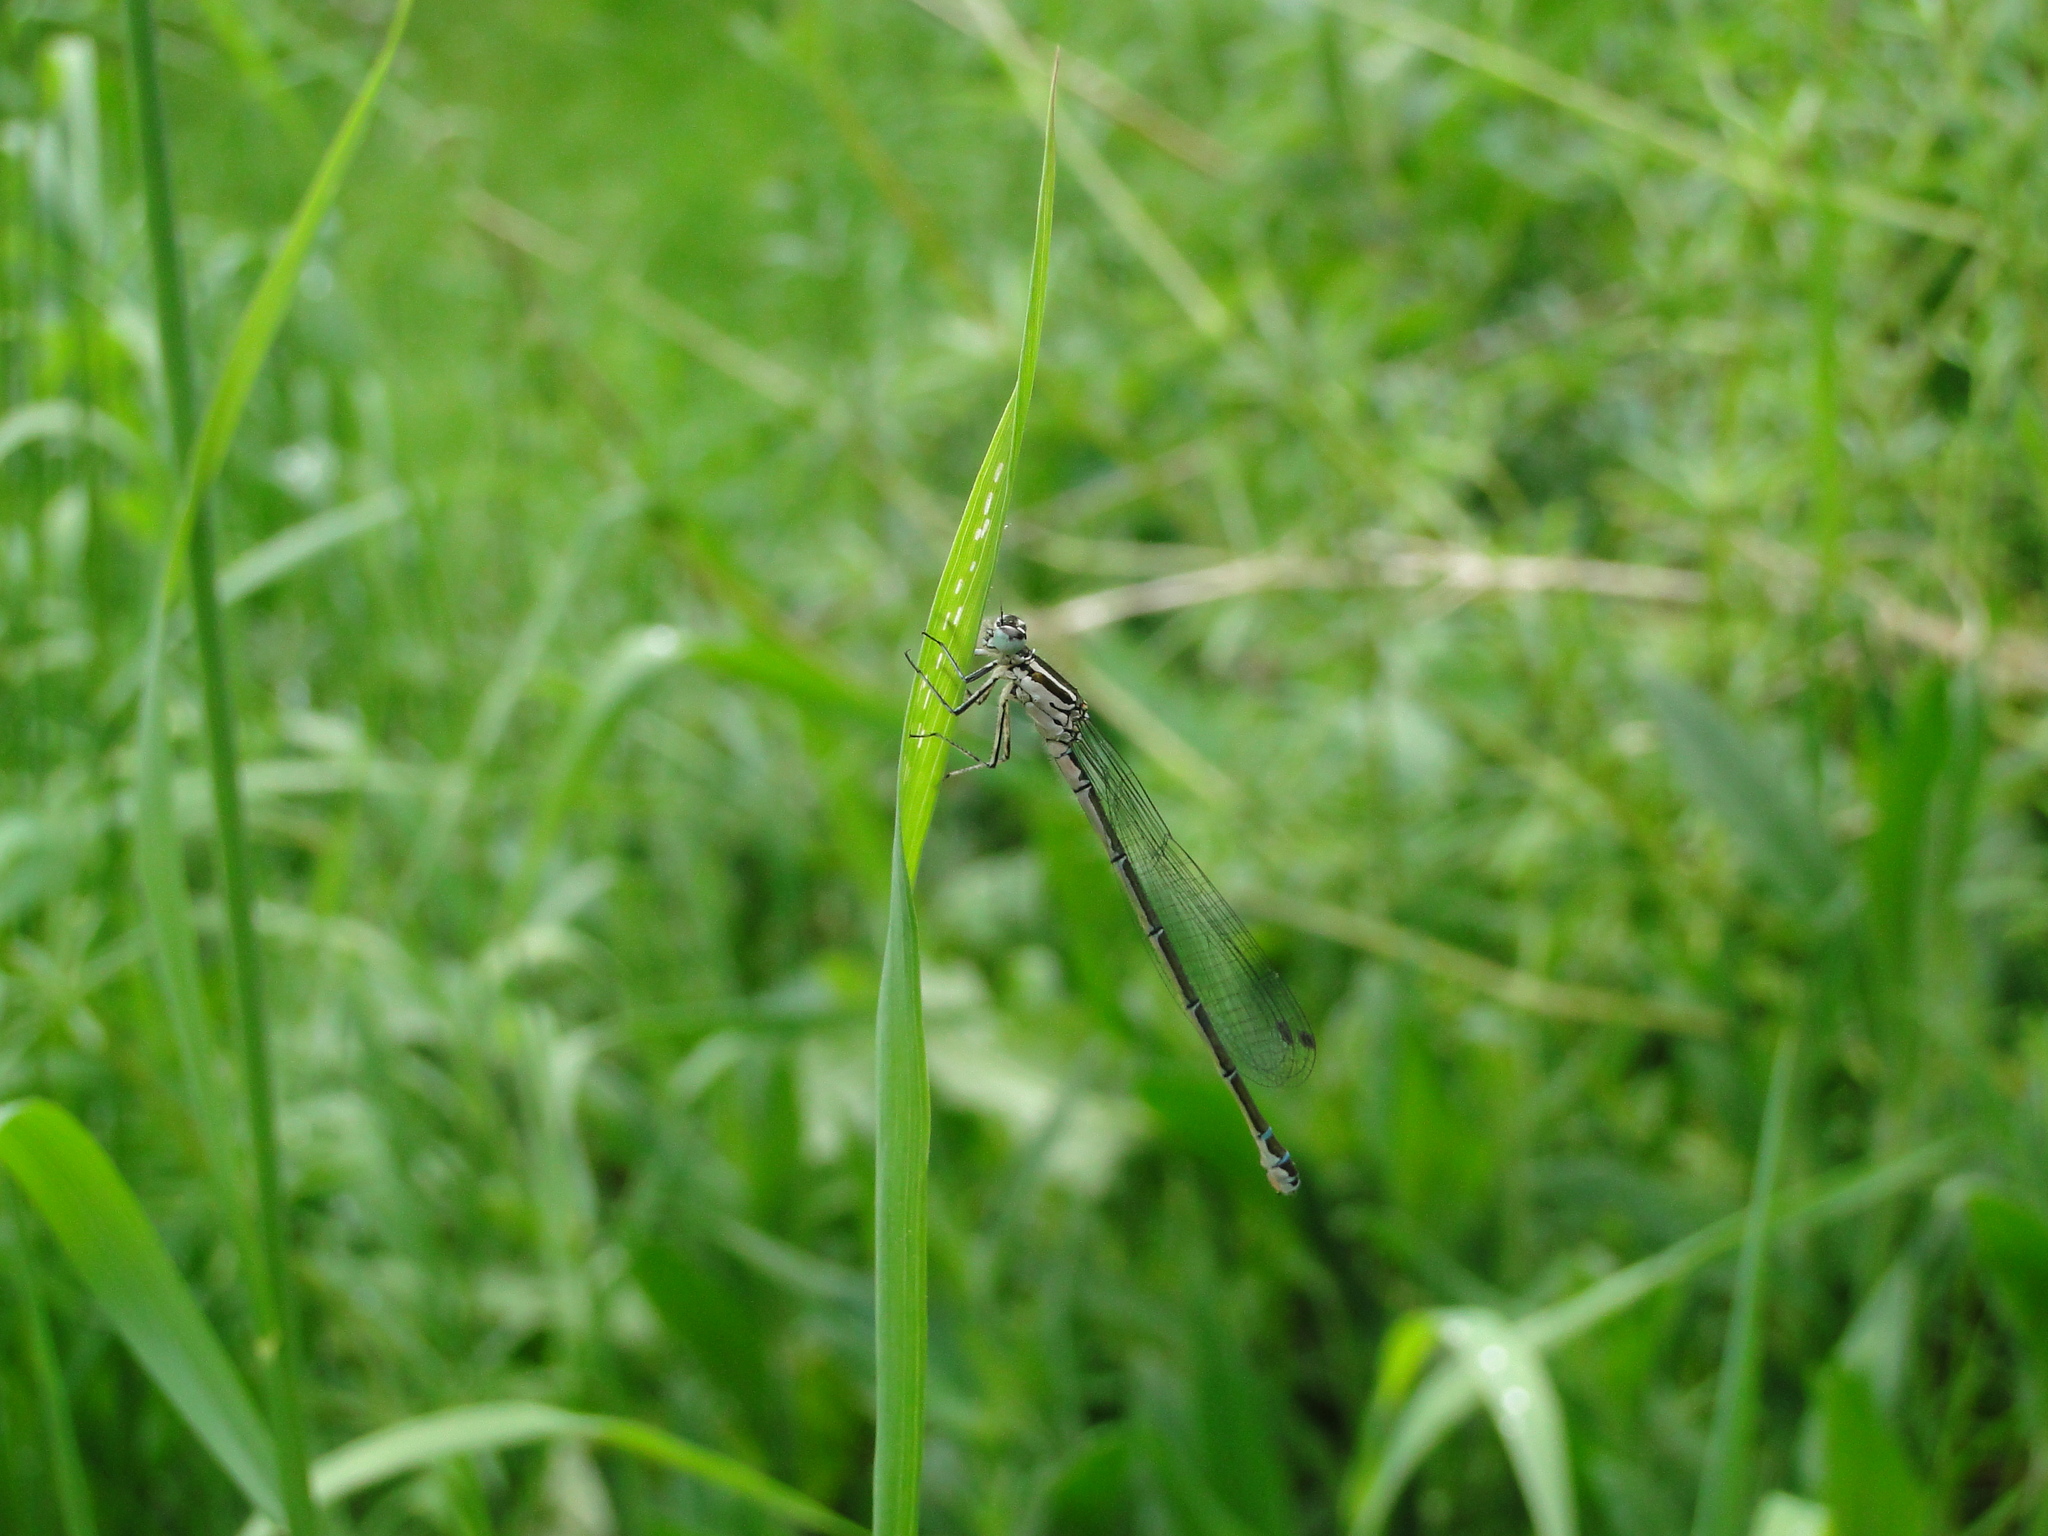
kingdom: Animalia
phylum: Arthropoda
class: Insecta
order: Odonata
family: Coenagrionidae
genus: Coenagrion
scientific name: Coenagrion puella
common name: Azure damselfly
